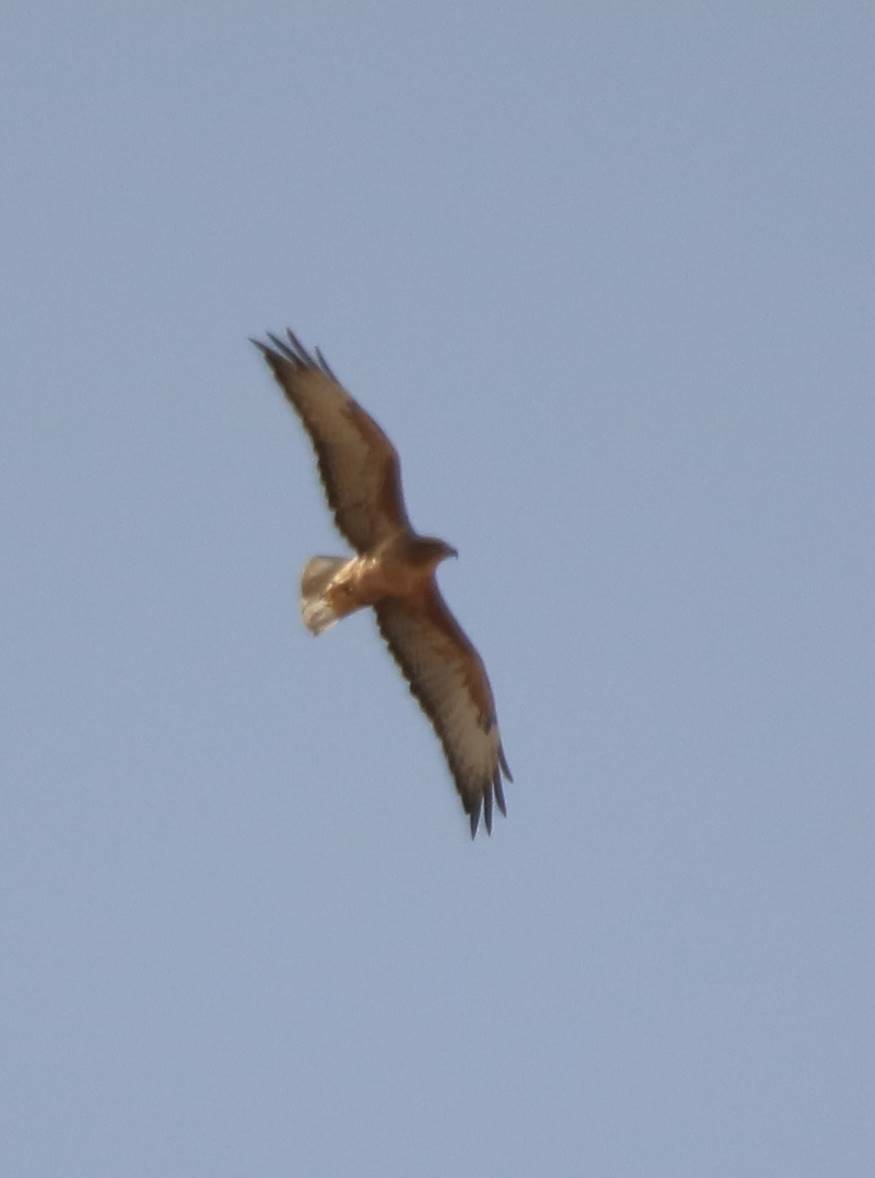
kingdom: Animalia
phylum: Chordata
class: Aves
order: Accipitriformes
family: Accipitridae
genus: Buteo
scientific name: Buteo rufinus
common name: Long-legged buzzard
